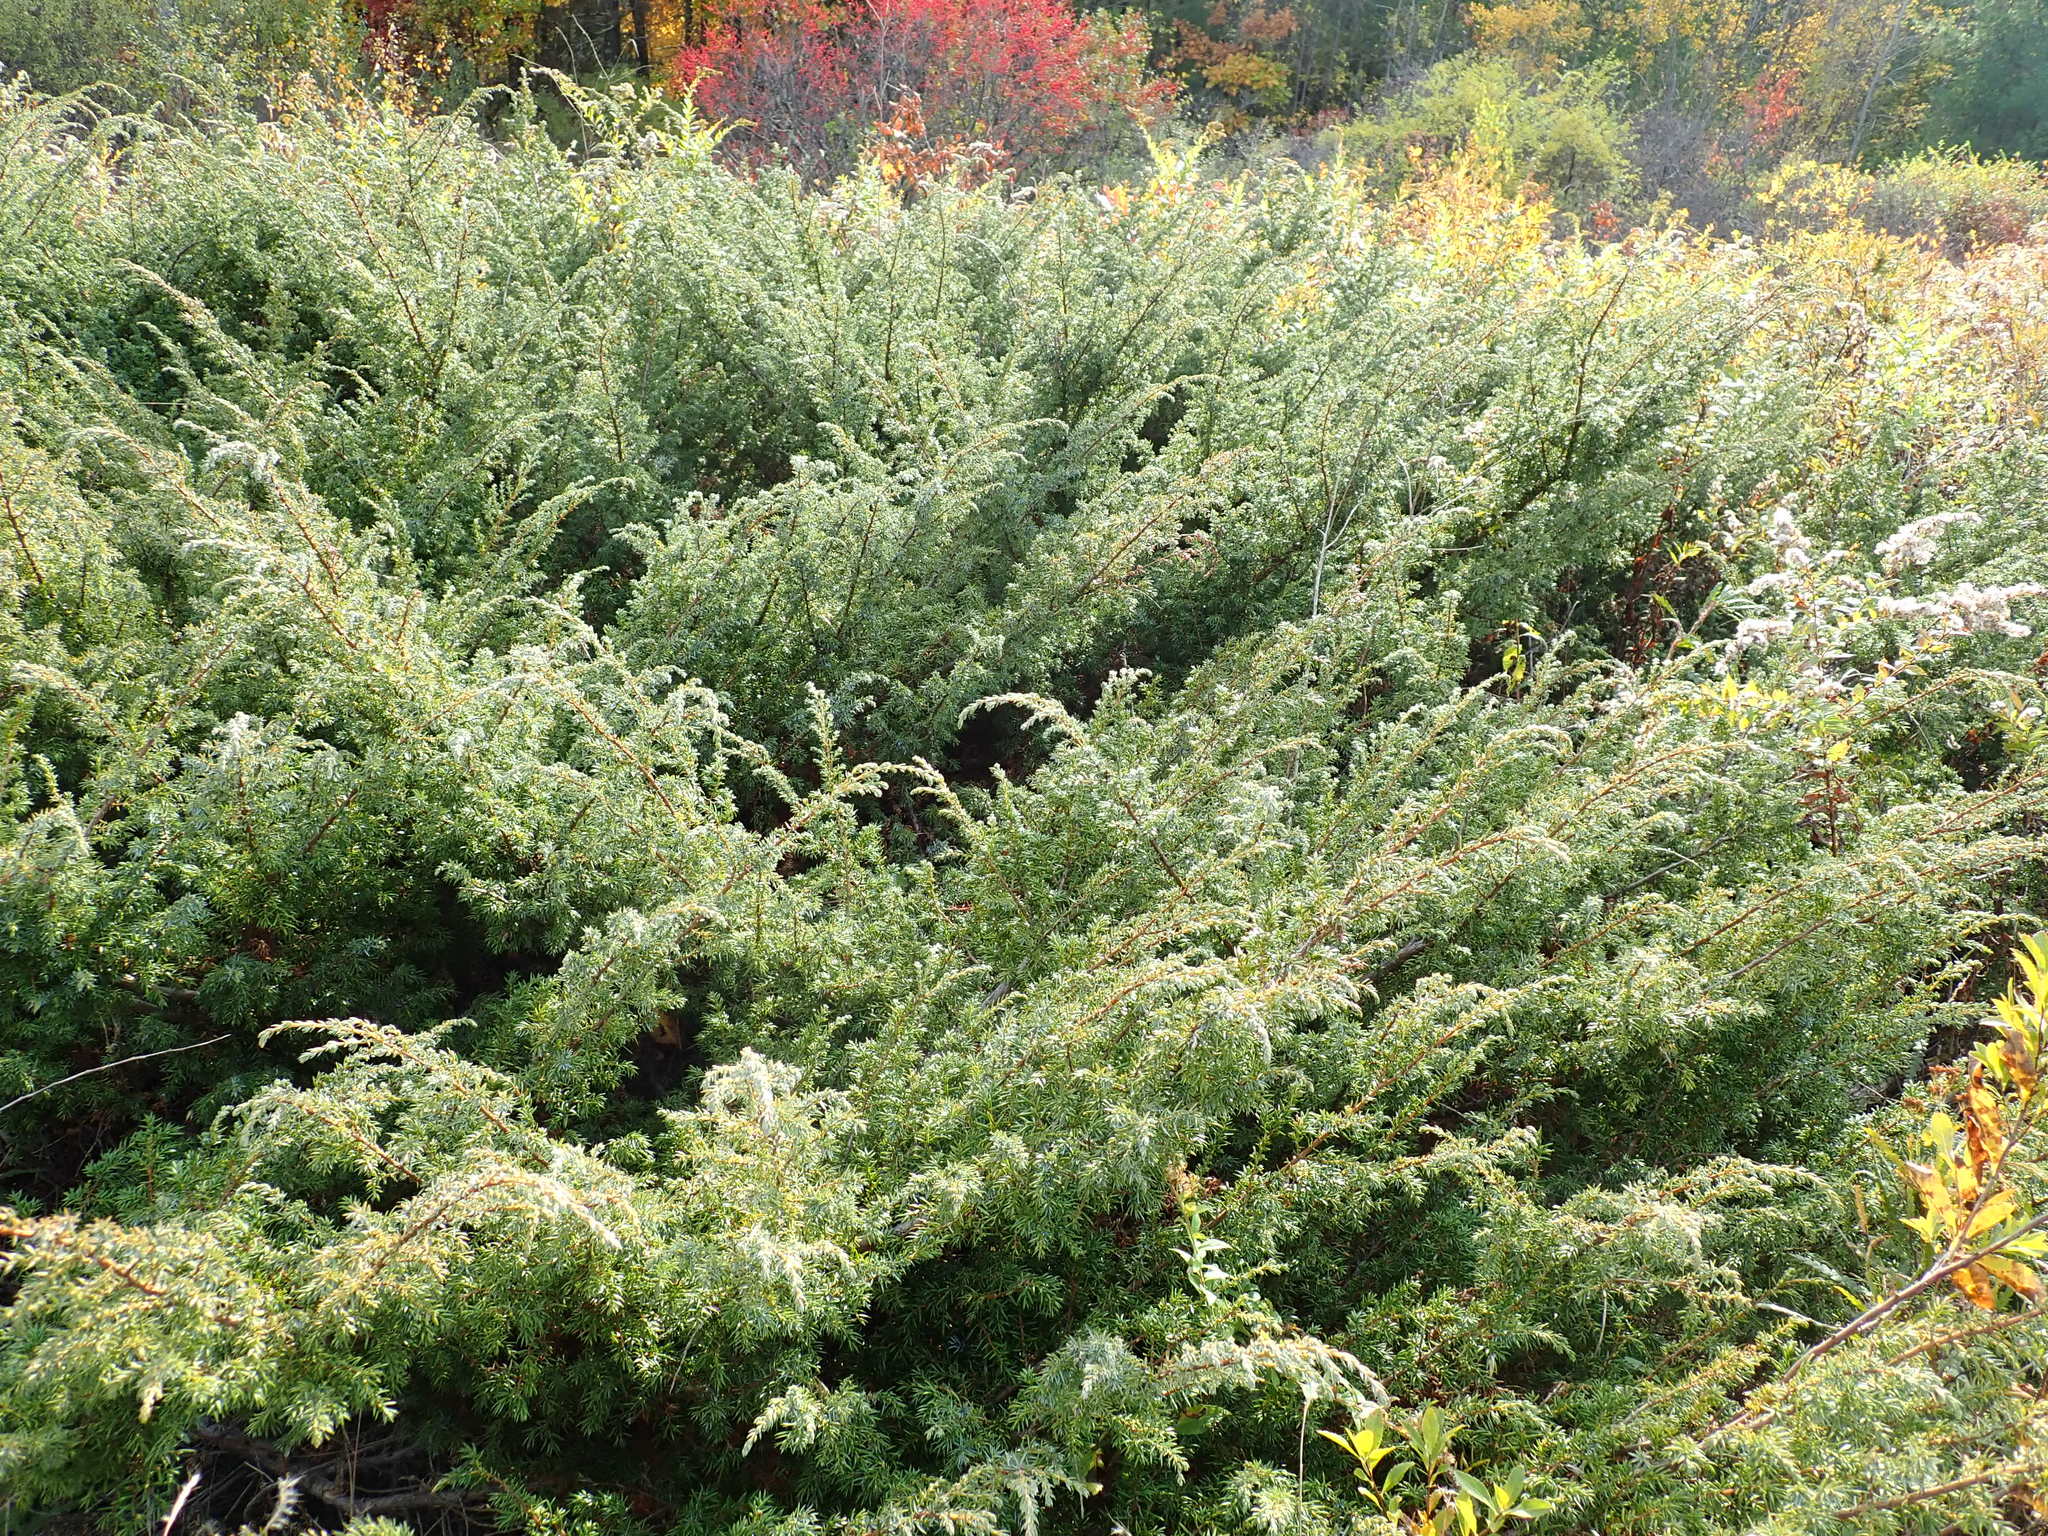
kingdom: Plantae
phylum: Tracheophyta
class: Pinopsida
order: Pinales
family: Cupressaceae
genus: Juniperus
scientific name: Juniperus communis
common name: Common juniper
